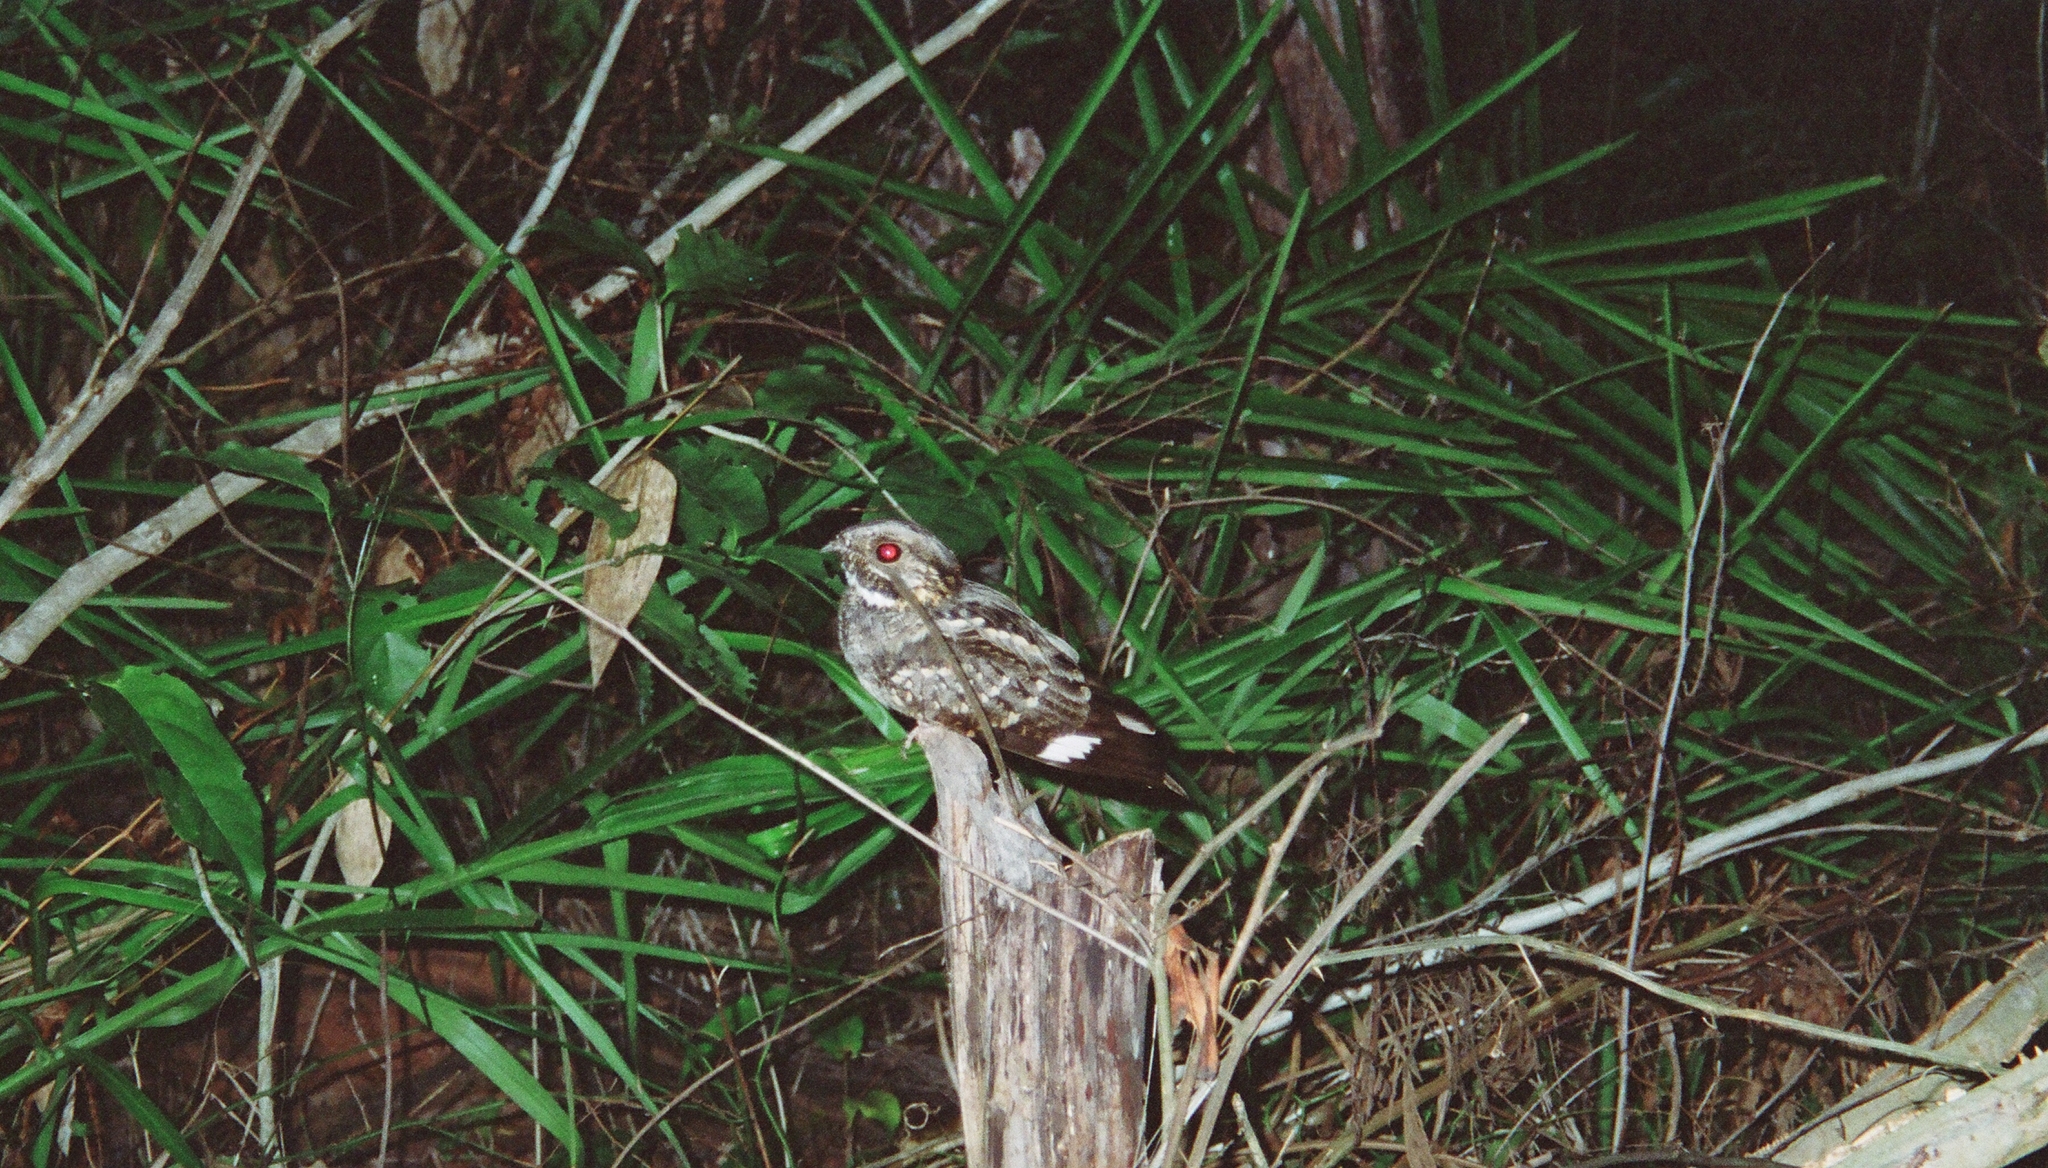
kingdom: Animalia
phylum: Chordata
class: Aves
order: Caprimulgiformes
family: Caprimulgidae
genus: Nyctidromus
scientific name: Nyctidromus albicollis
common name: Pauraque
